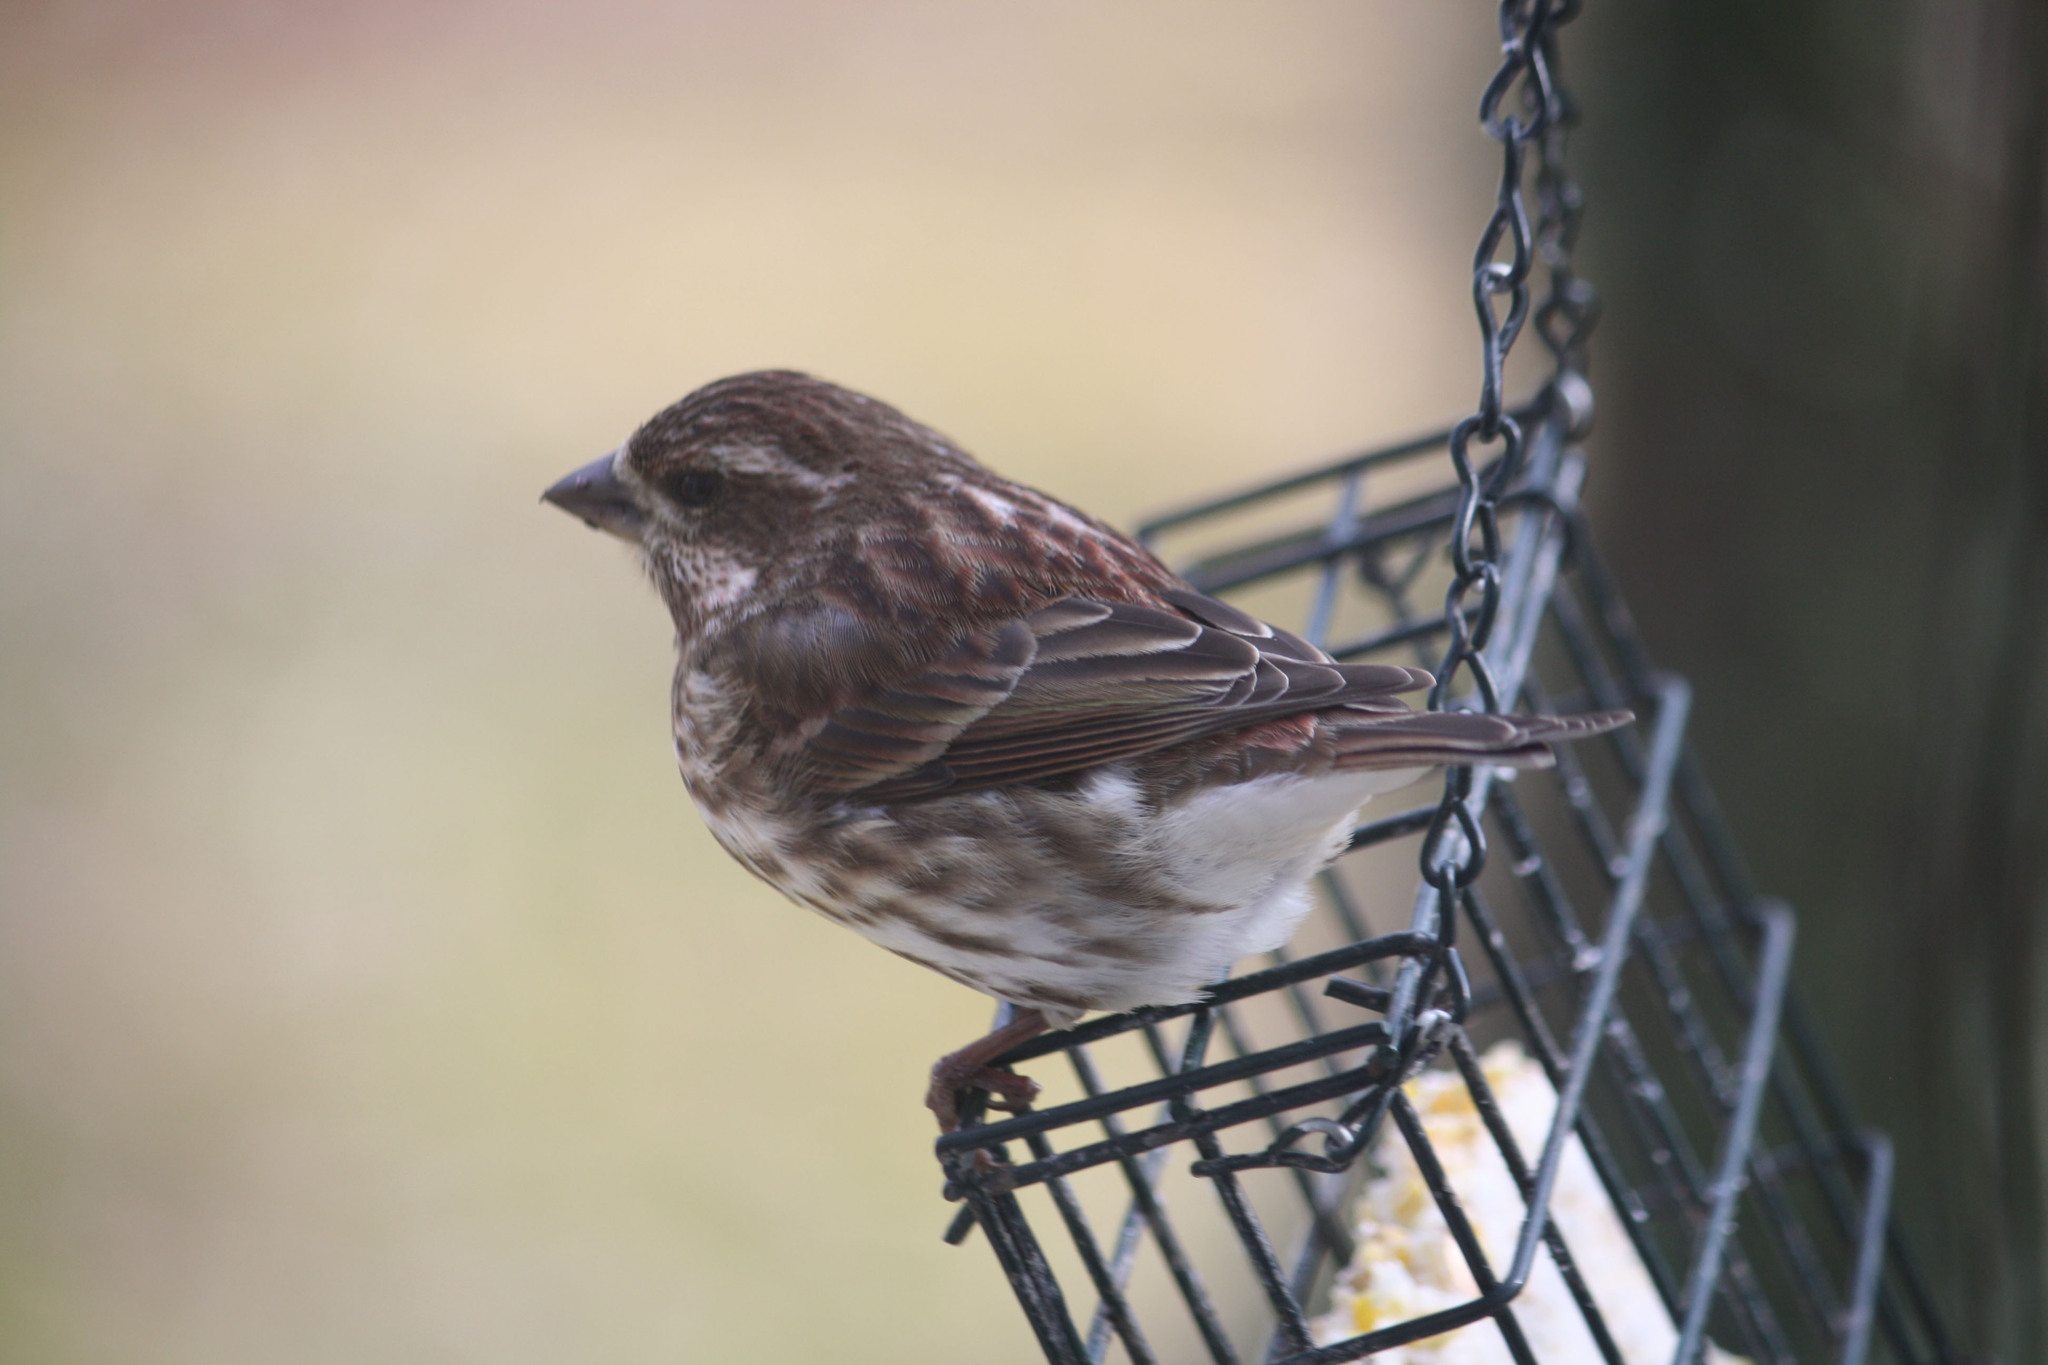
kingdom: Animalia
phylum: Chordata
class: Aves
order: Passeriformes
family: Fringillidae
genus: Haemorhous
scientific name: Haemorhous purpureus
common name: Purple finch
